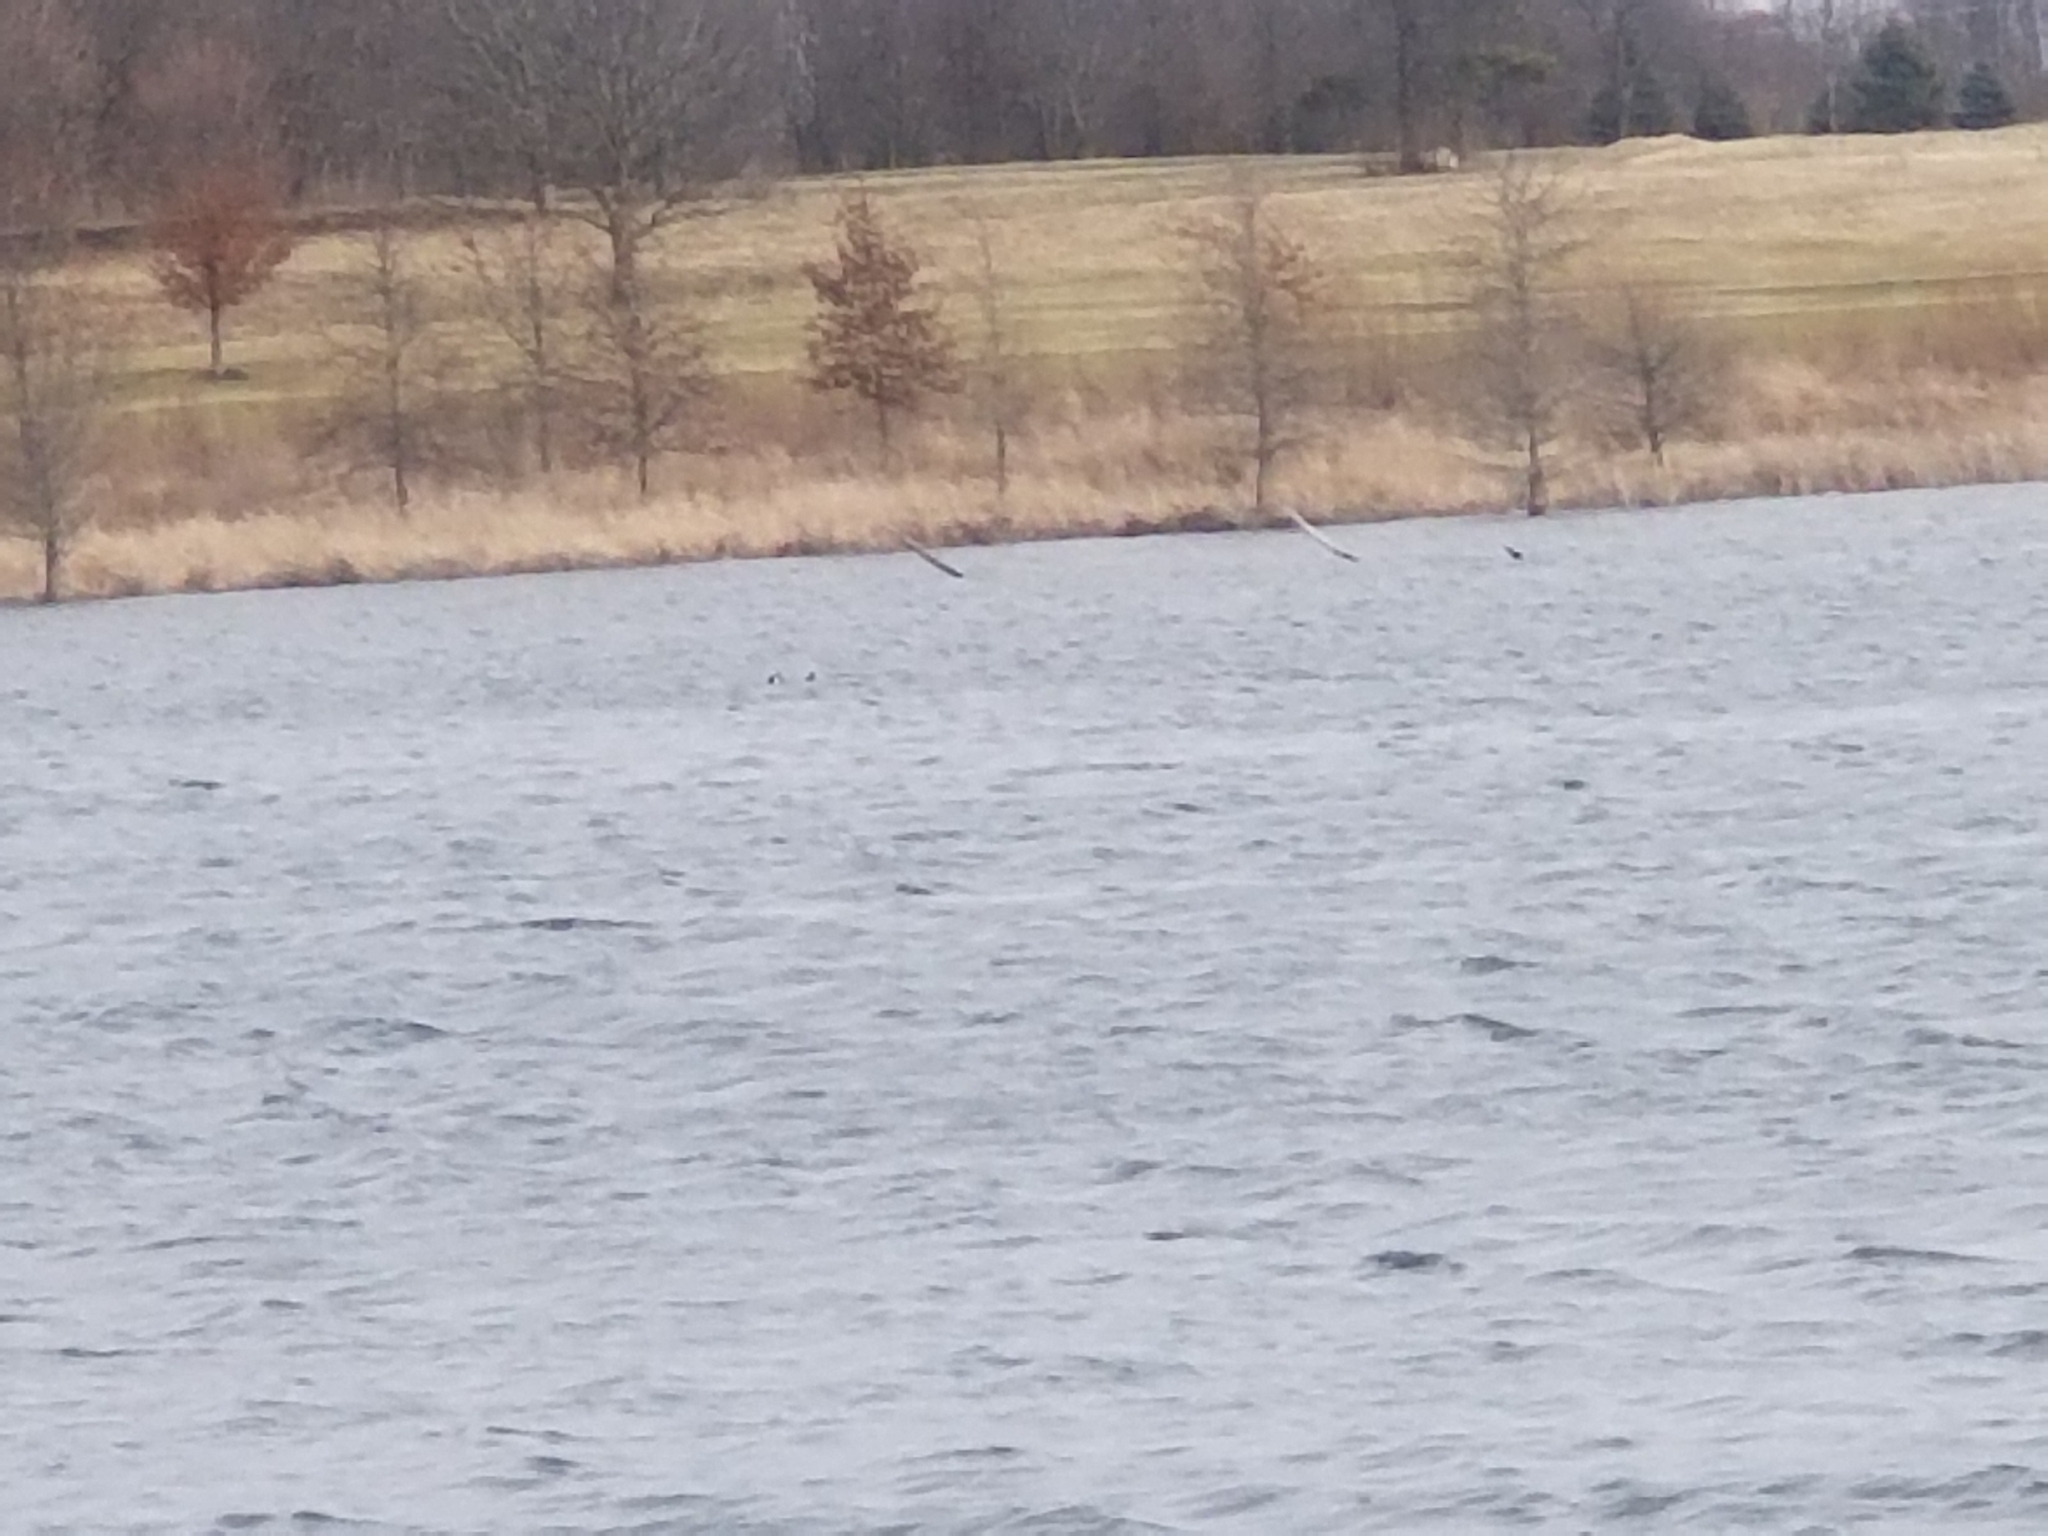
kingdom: Animalia
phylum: Chordata
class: Aves
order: Anseriformes
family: Anatidae
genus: Bucephala
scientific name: Bucephala albeola
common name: Bufflehead
